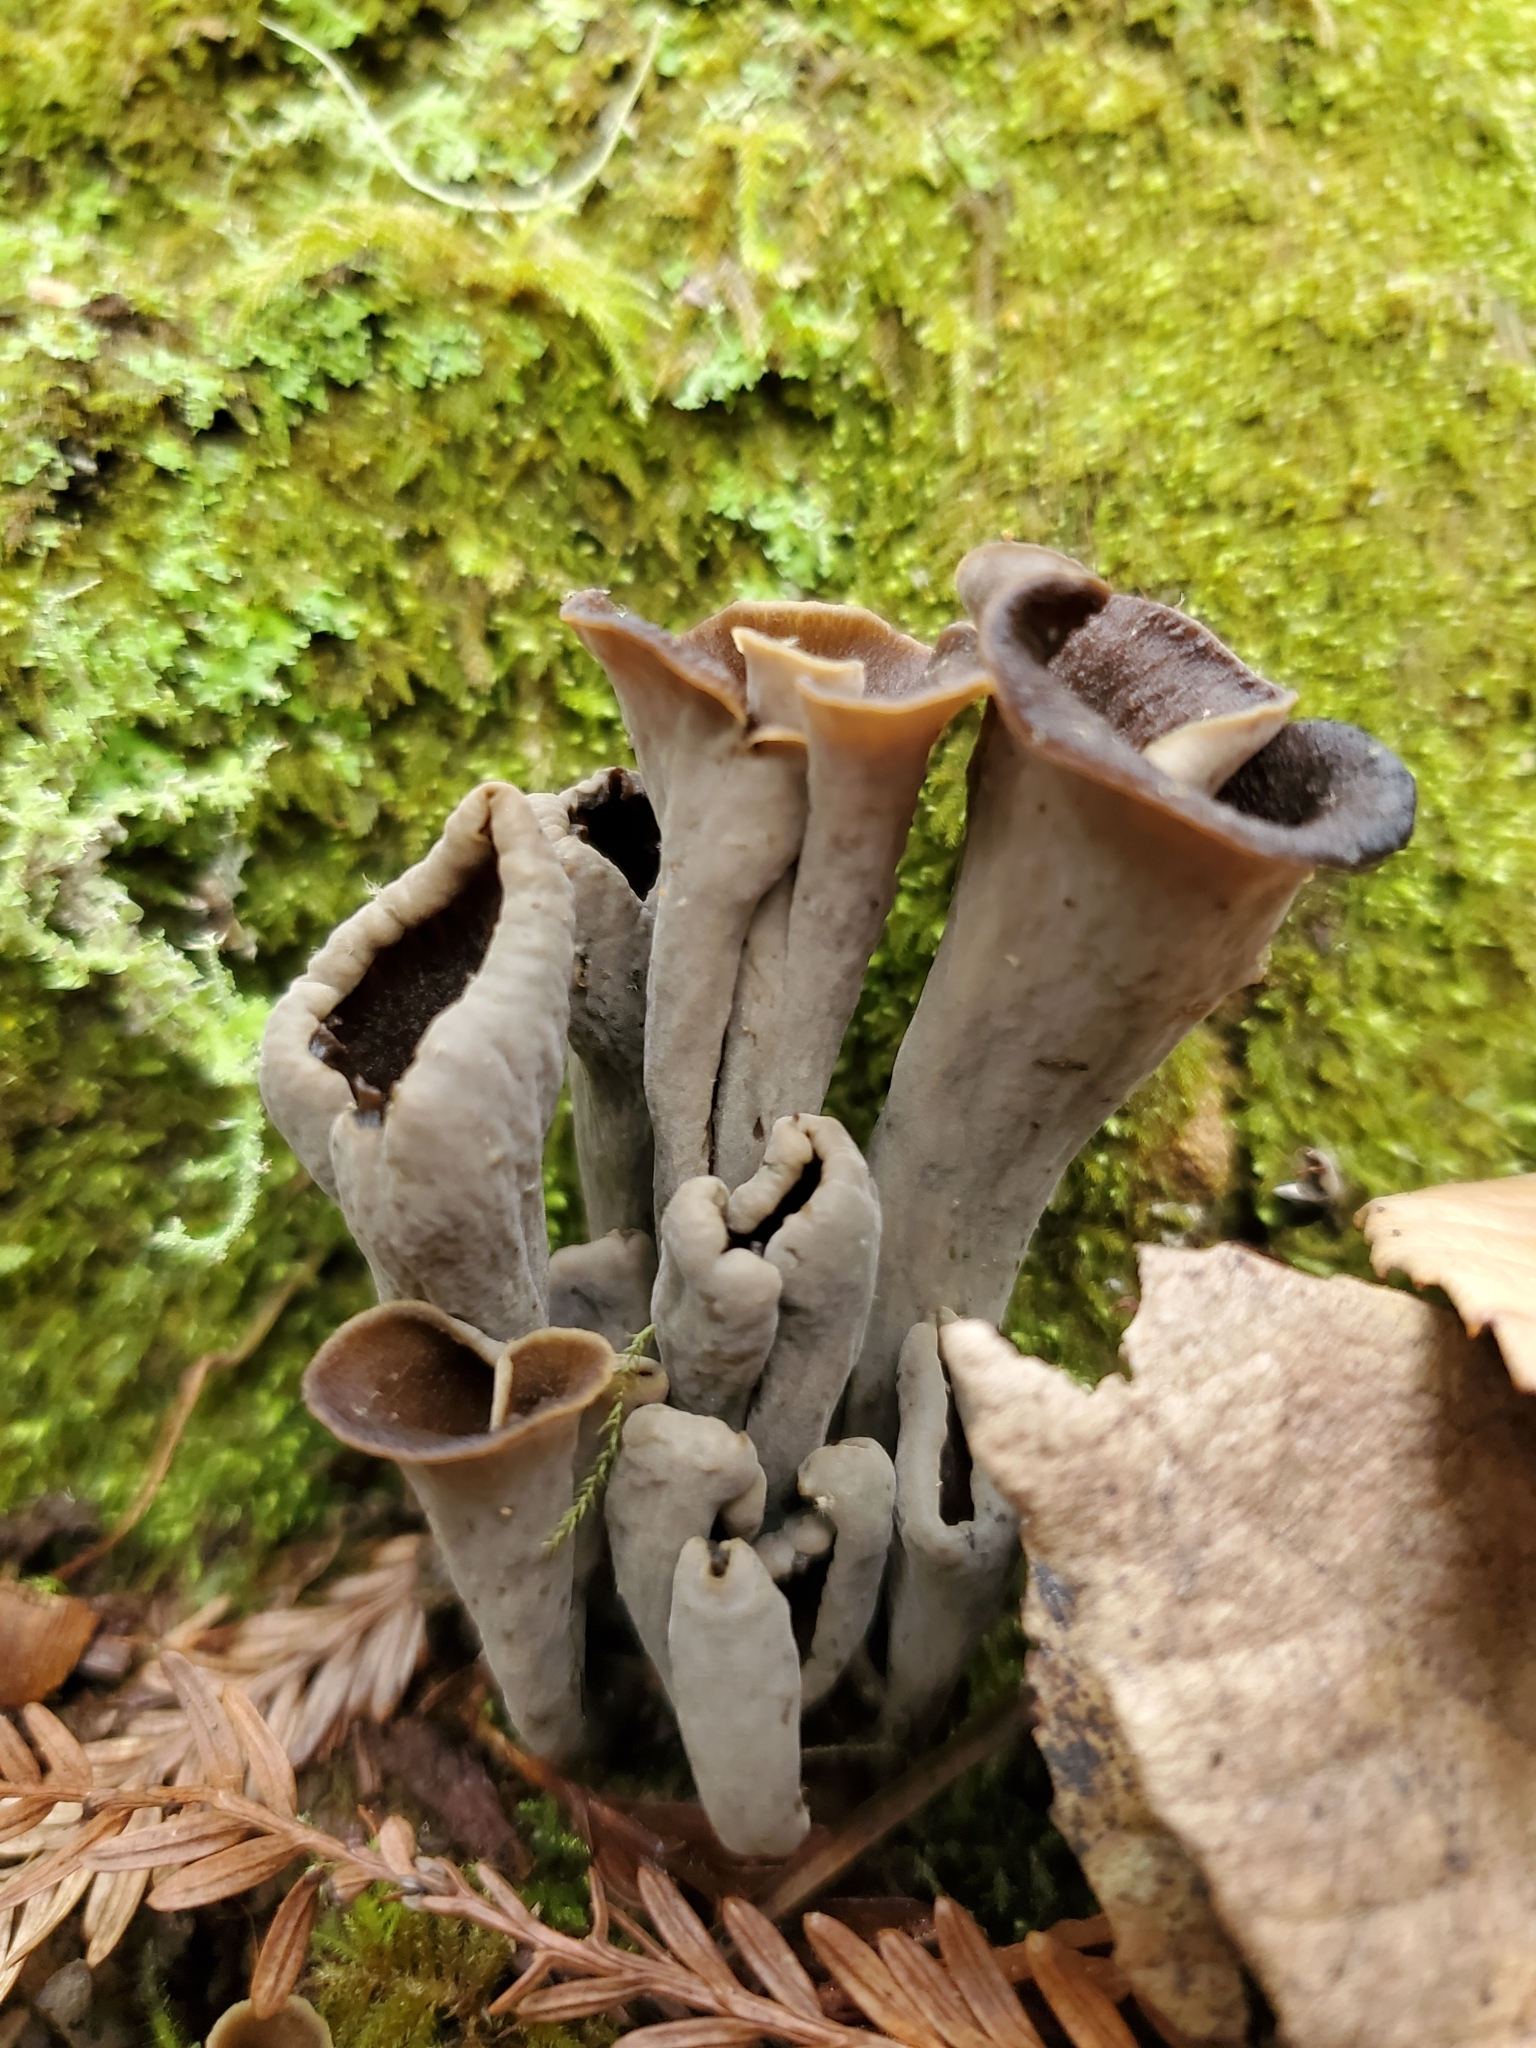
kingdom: Fungi
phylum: Basidiomycota
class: Agaricomycetes
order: Cantharellales
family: Hydnaceae
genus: Craterellus
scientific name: Craterellus calicornucopioides
